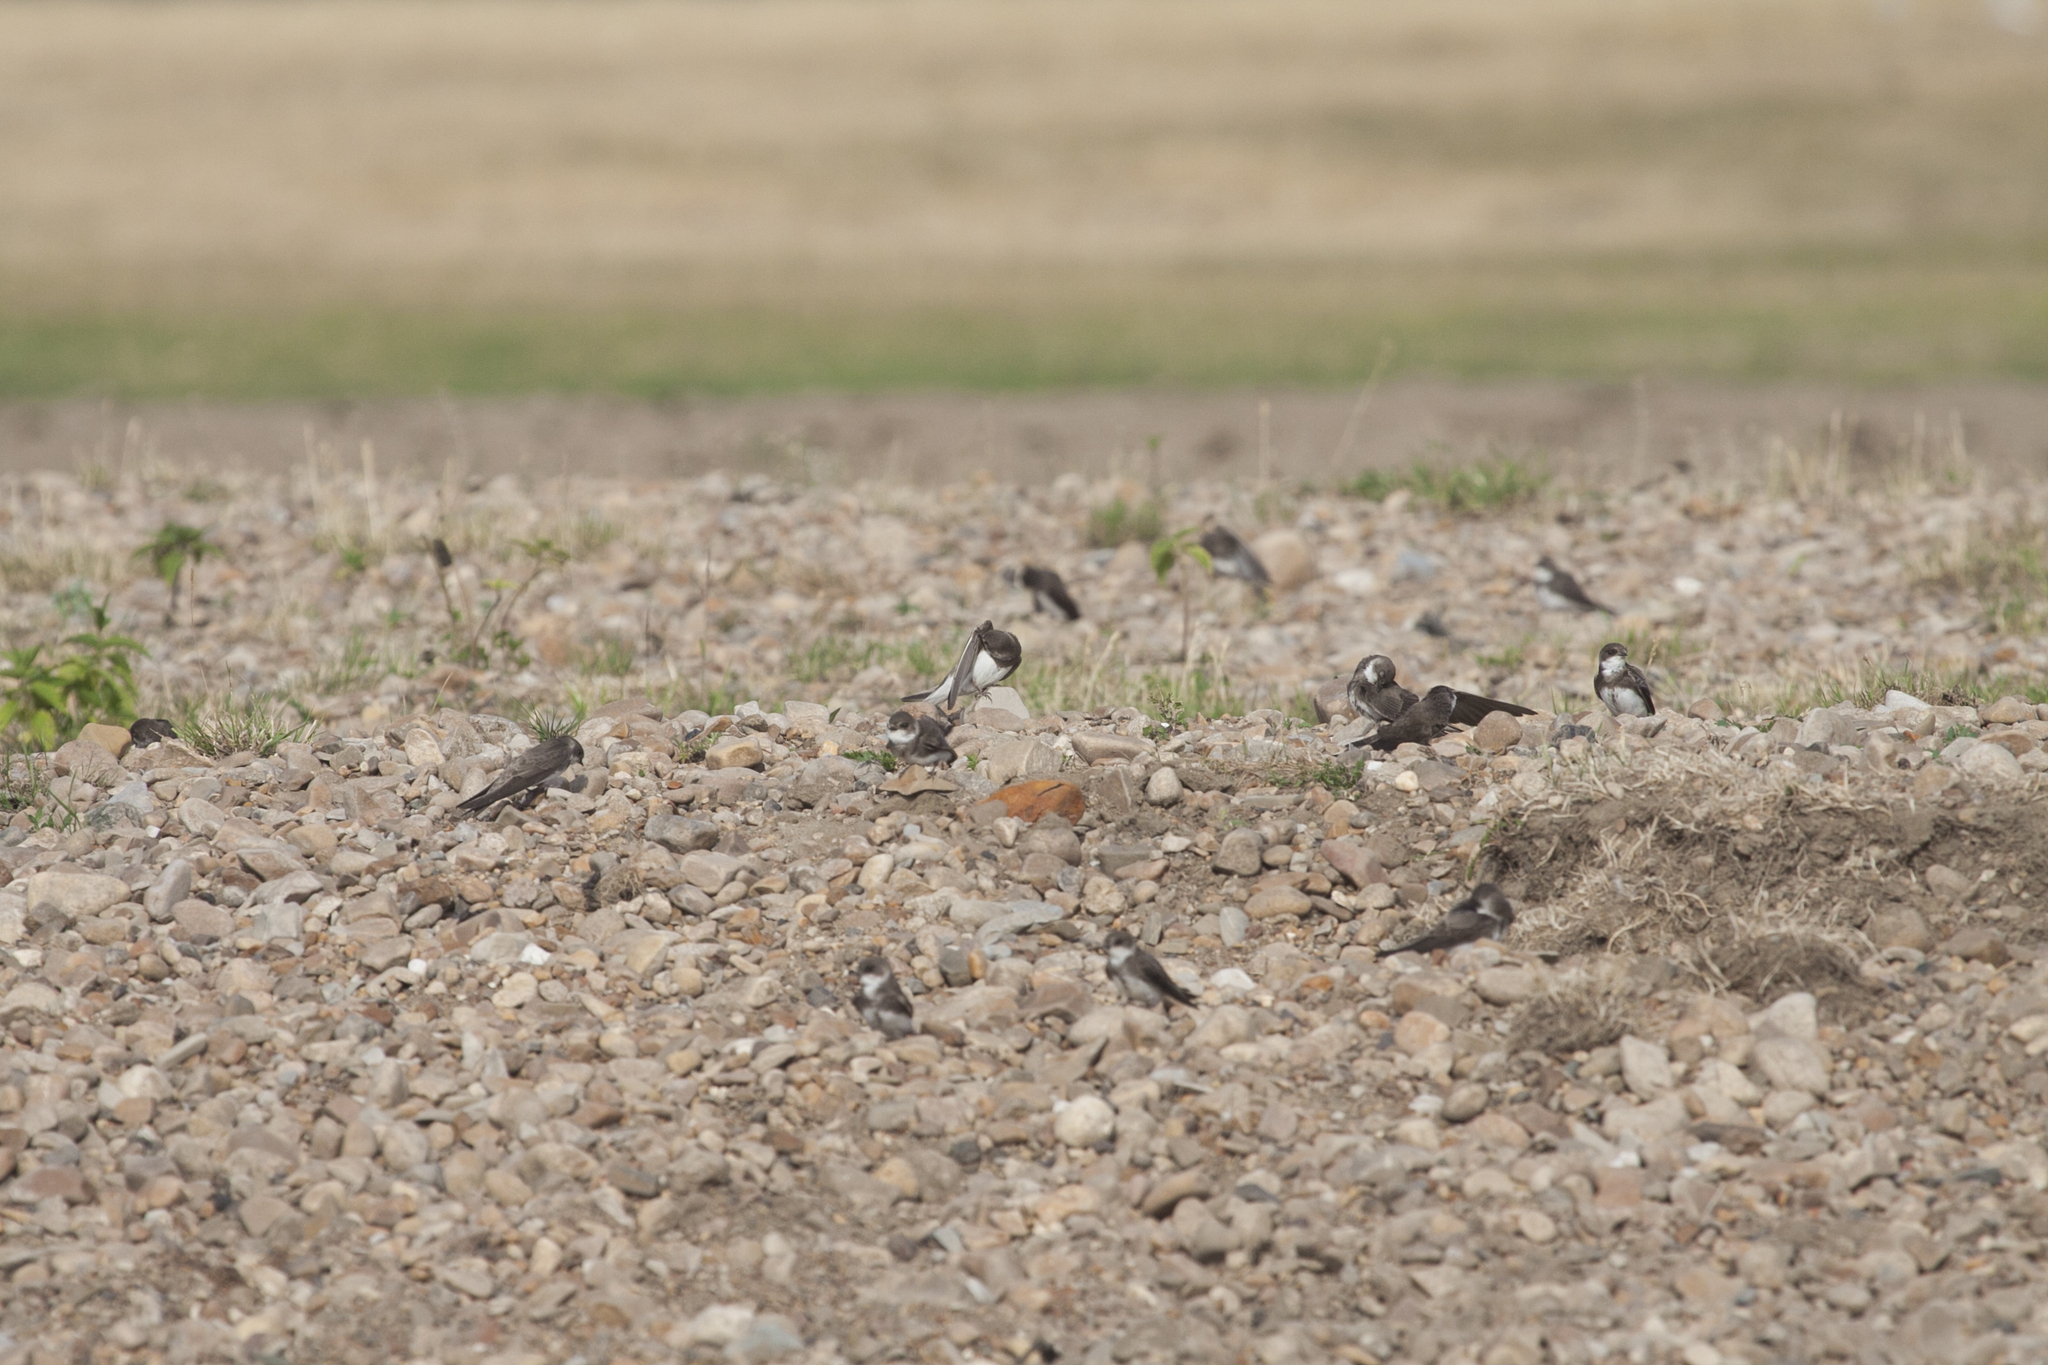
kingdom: Animalia
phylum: Chordata
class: Aves
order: Passeriformes
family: Hirundinidae
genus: Riparia
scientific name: Riparia riparia
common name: Sand martin
